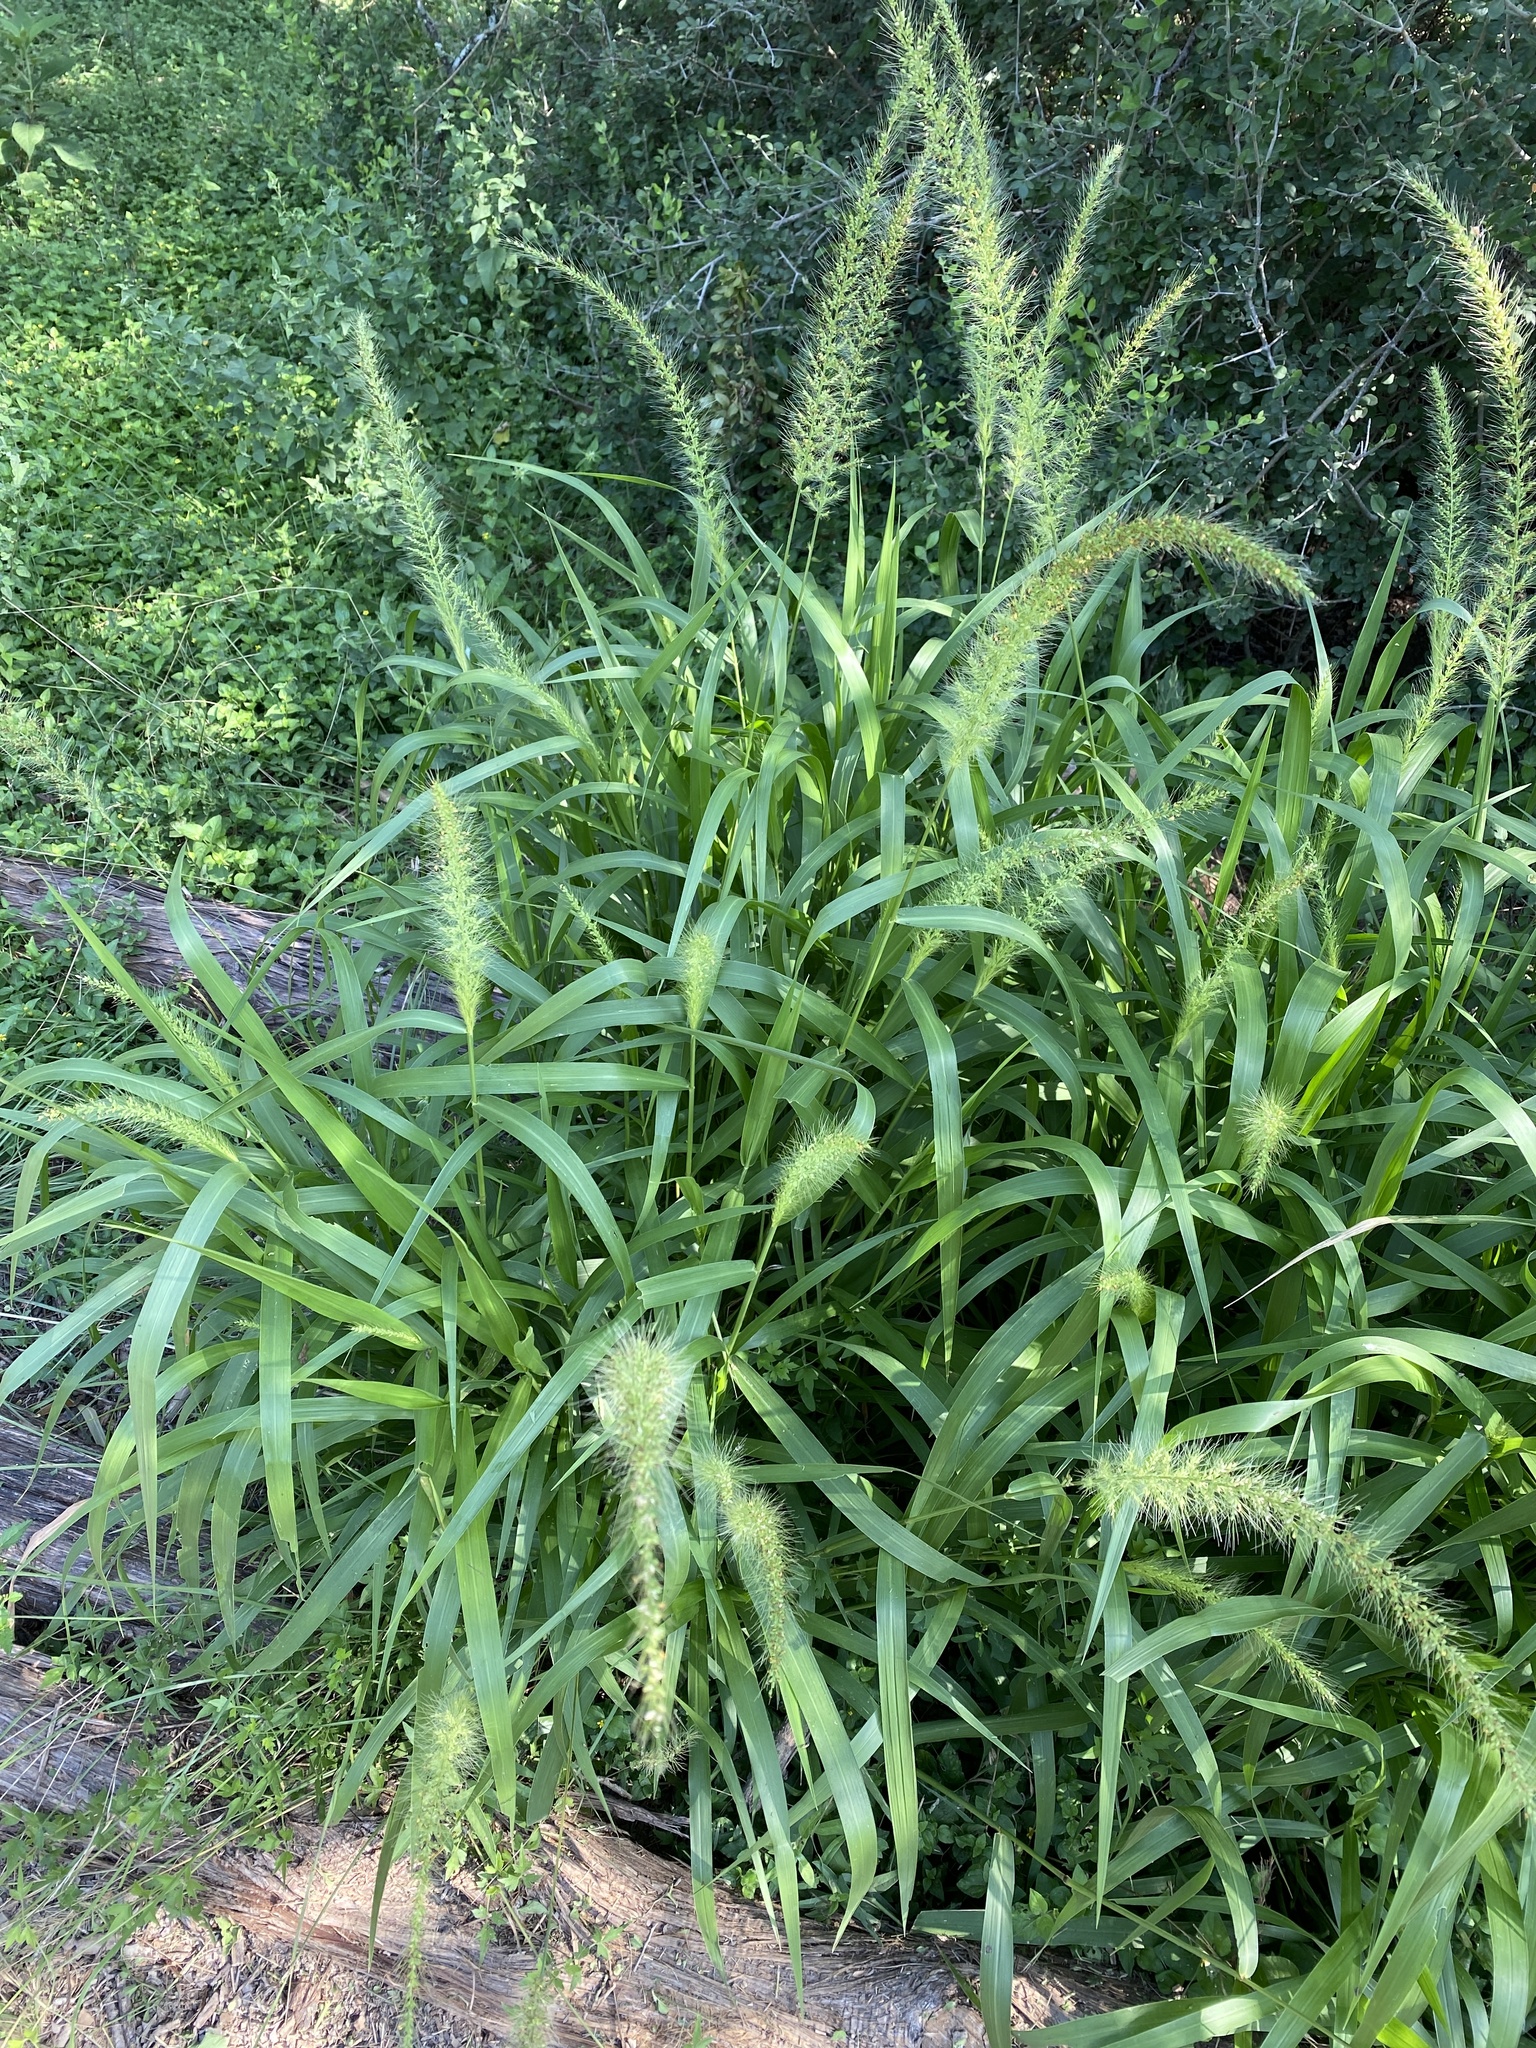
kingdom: Plantae
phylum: Tracheophyta
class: Liliopsida
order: Poales
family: Poaceae
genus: Setaria
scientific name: Setaria scheelei
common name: Southwestern bristle grass
